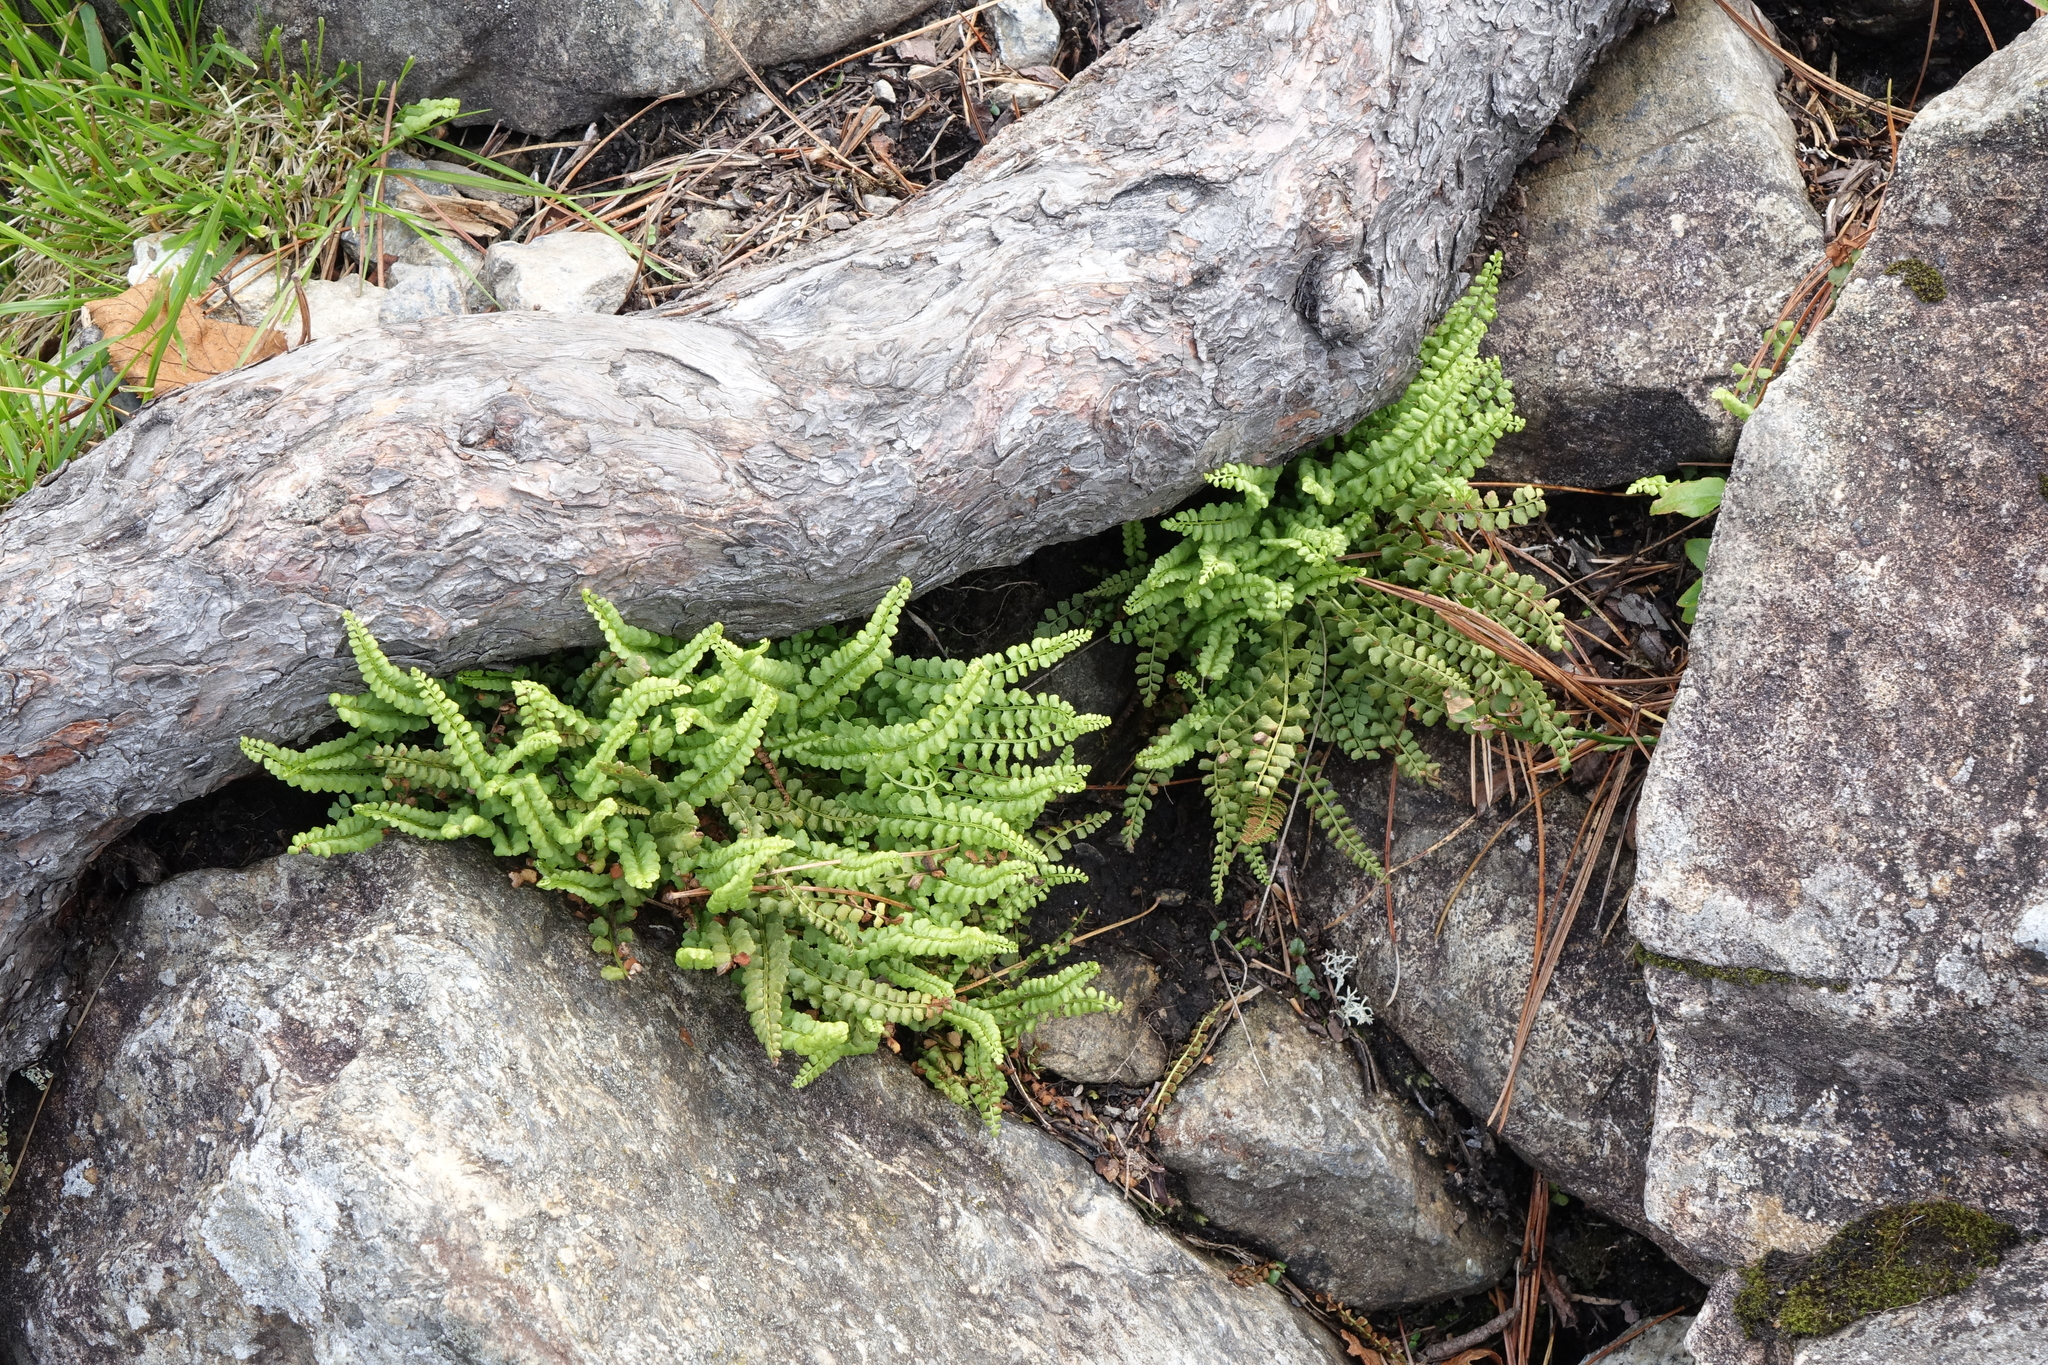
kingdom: Plantae
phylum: Tracheophyta
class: Polypodiopsida
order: Polypodiales
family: Aspleniaceae
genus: Asplenium
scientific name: Asplenium viride
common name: Green spleenwort
